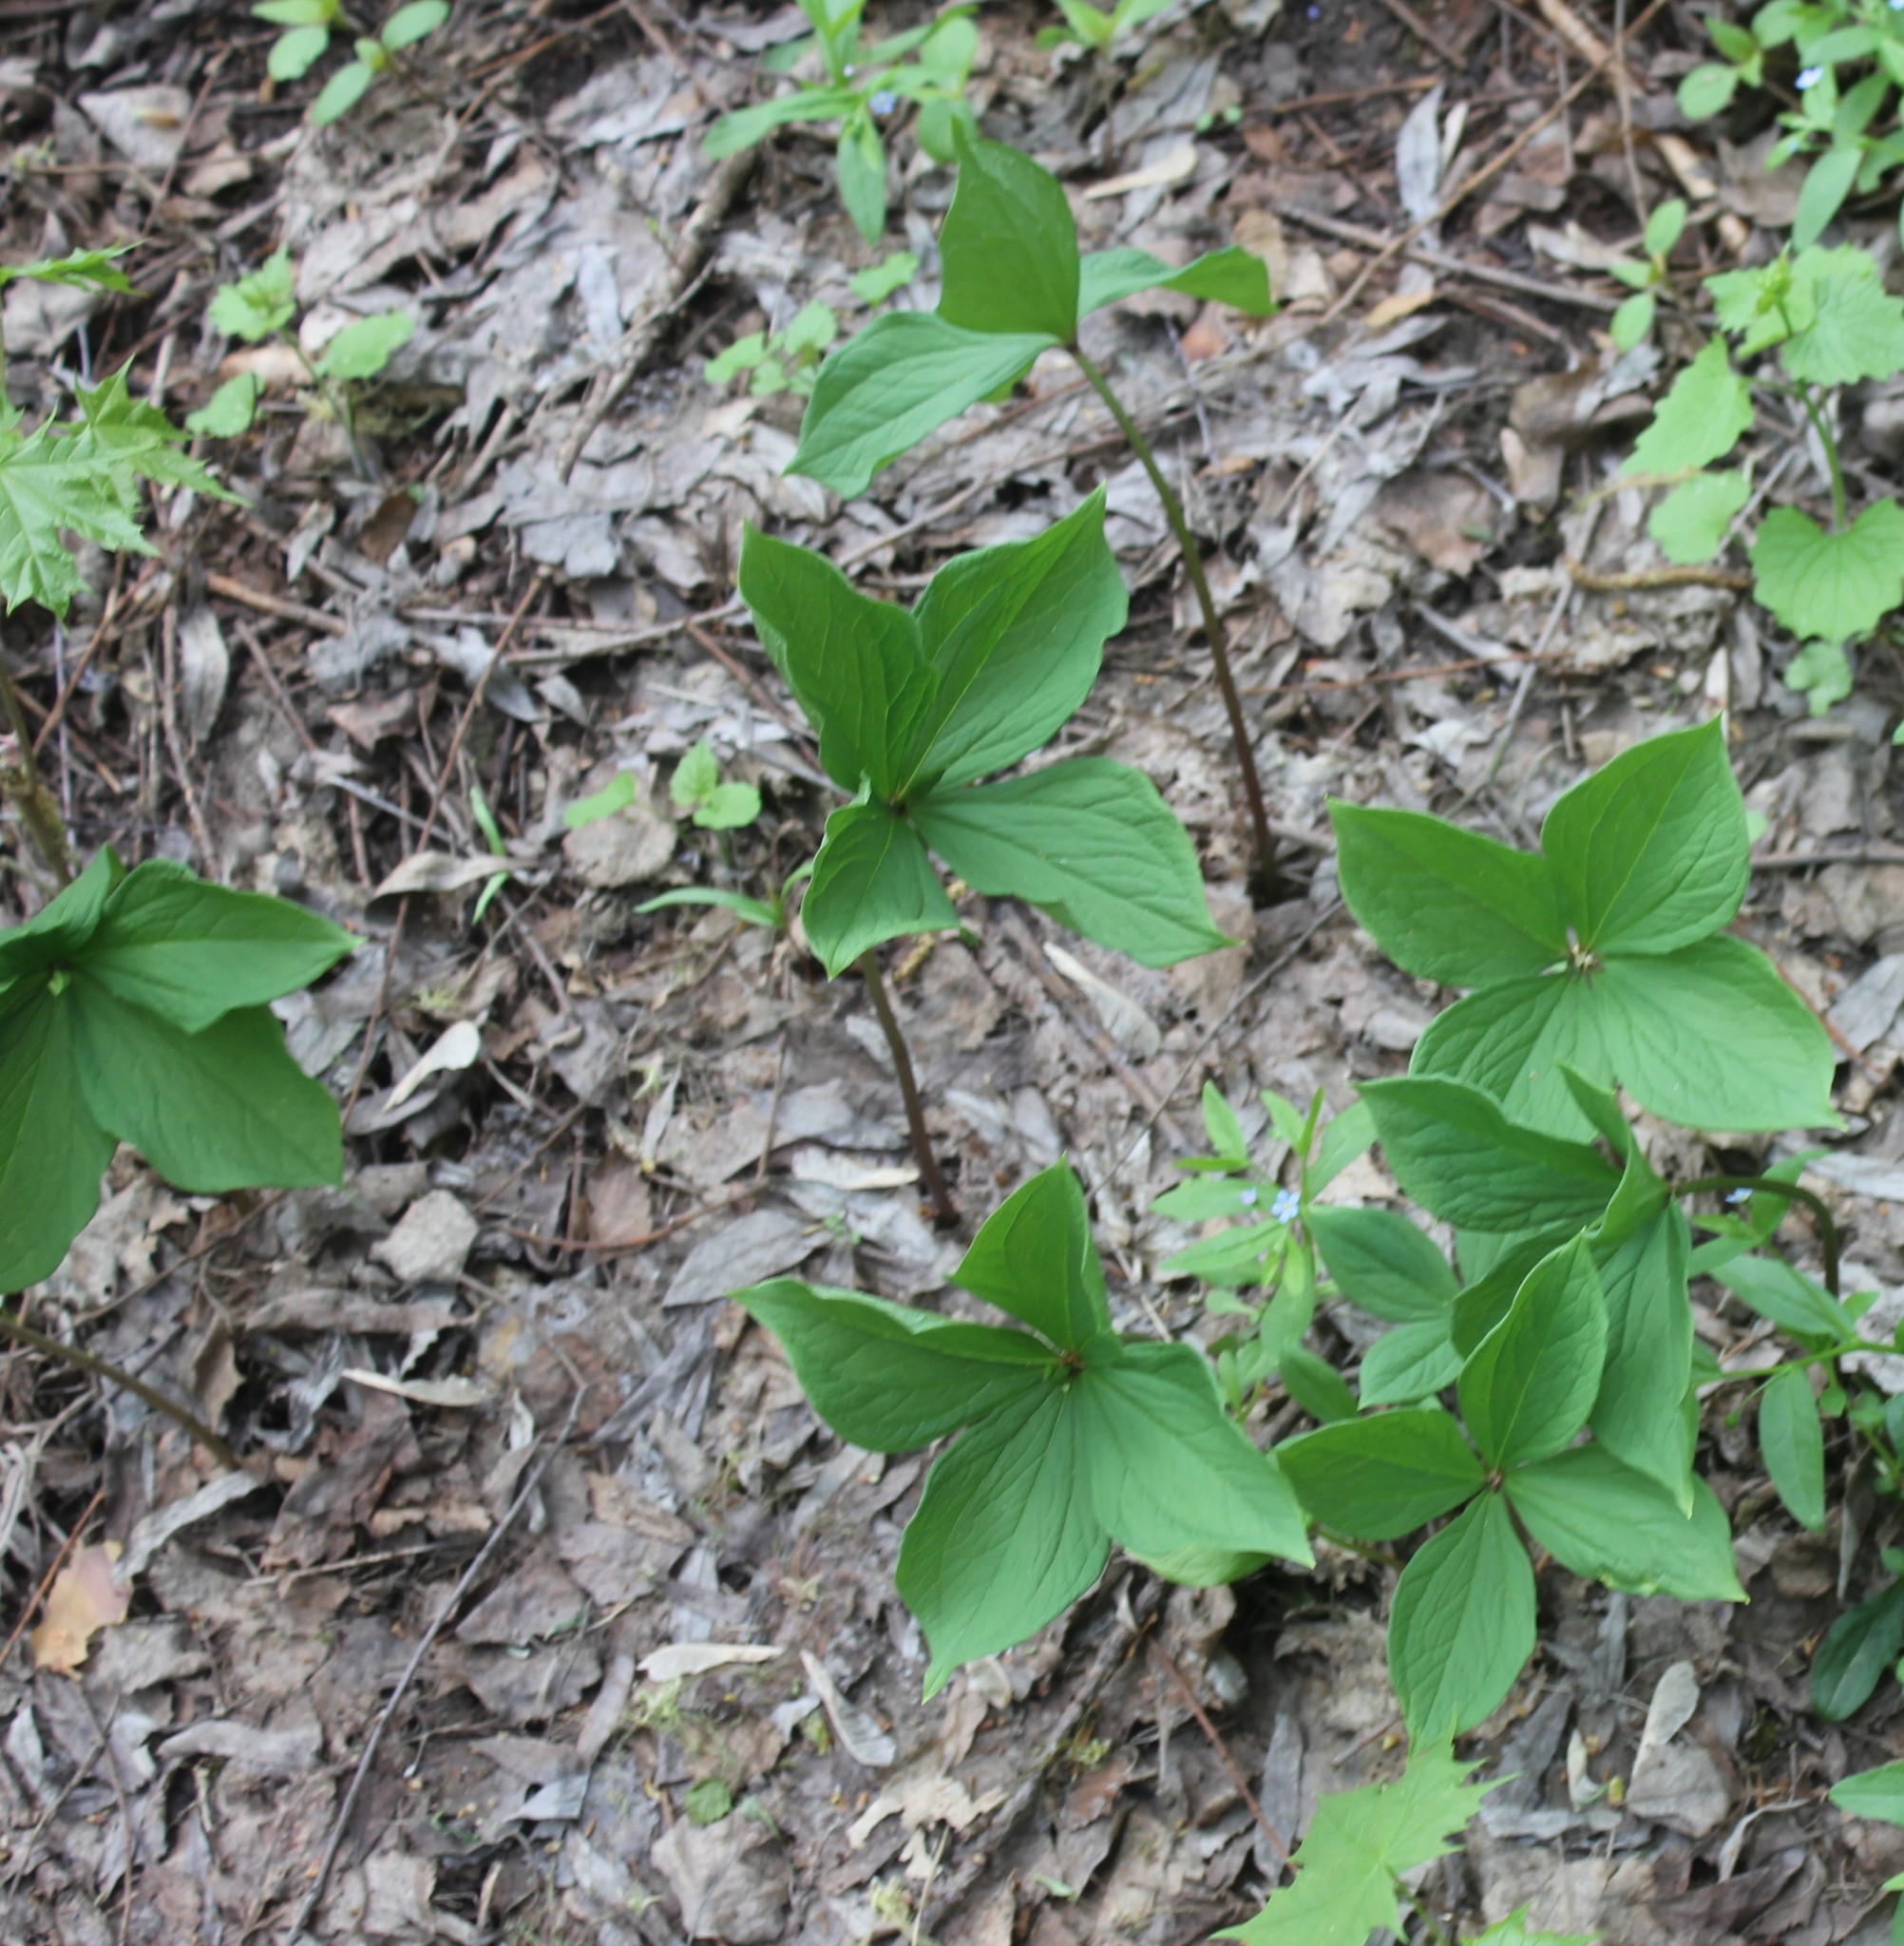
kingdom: Plantae
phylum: Tracheophyta
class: Liliopsida
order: Liliales
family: Melanthiaceae
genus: Paris
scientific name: Paris quadrifolia
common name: Herb-paris
